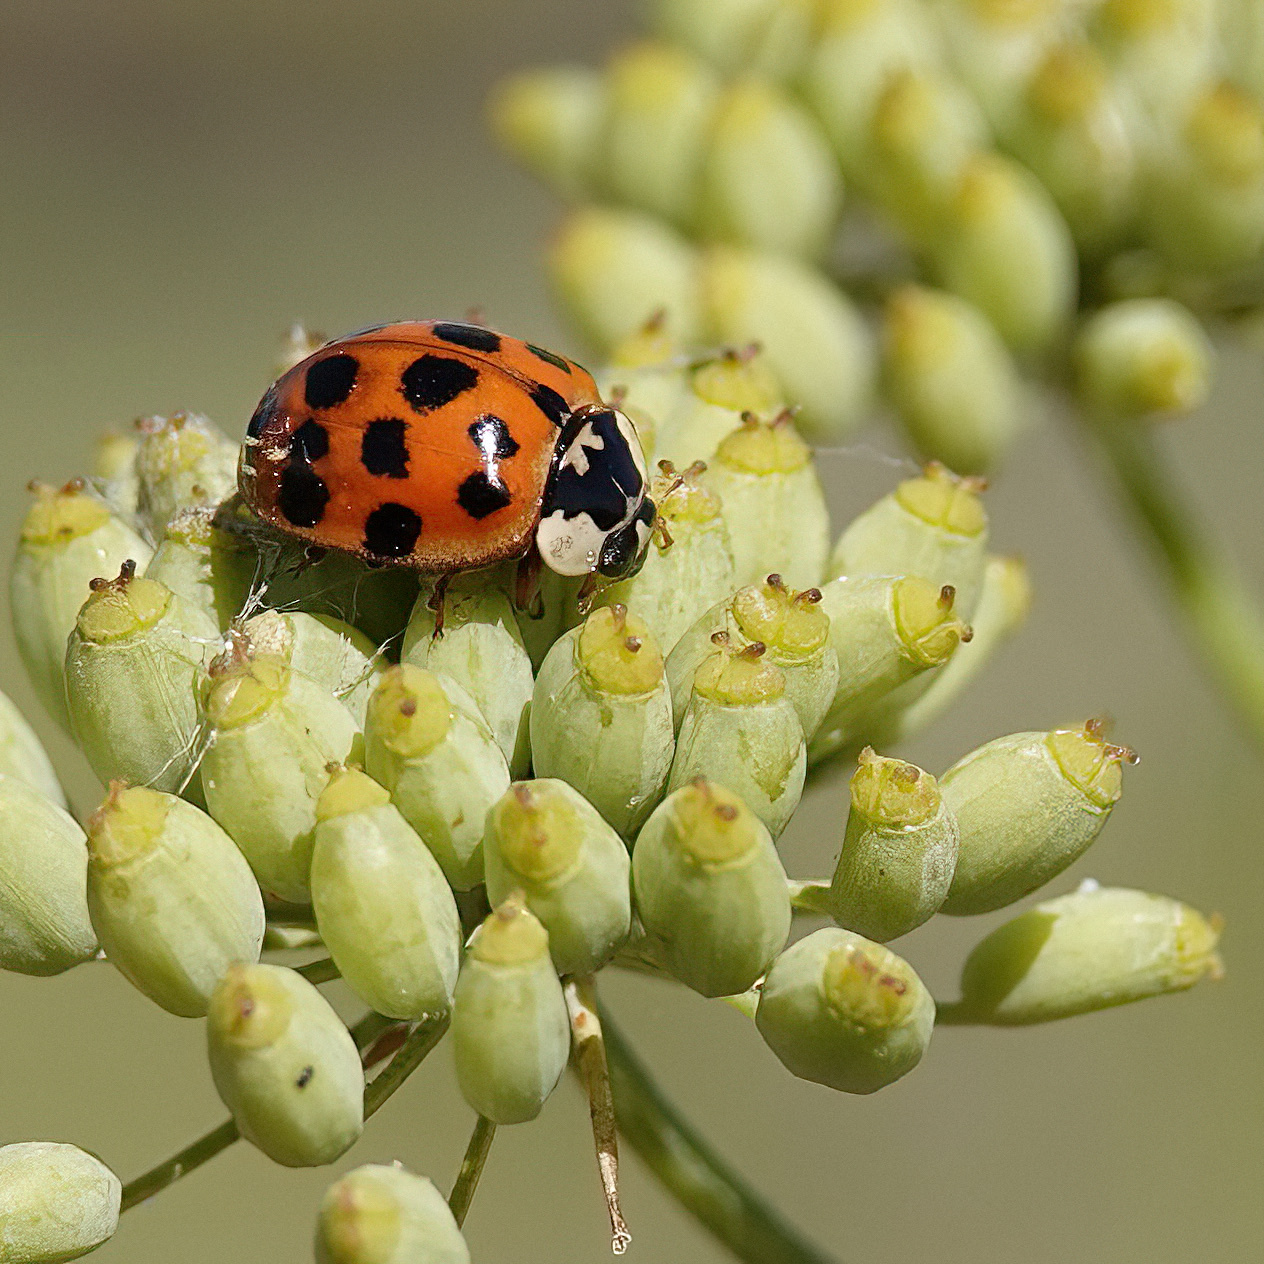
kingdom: Animalia
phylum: Arthropoda
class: Insecta
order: Coleoptera
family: Coccinellidae
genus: Harmonia
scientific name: Harmonia axyridis
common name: Harlequin ladybird
